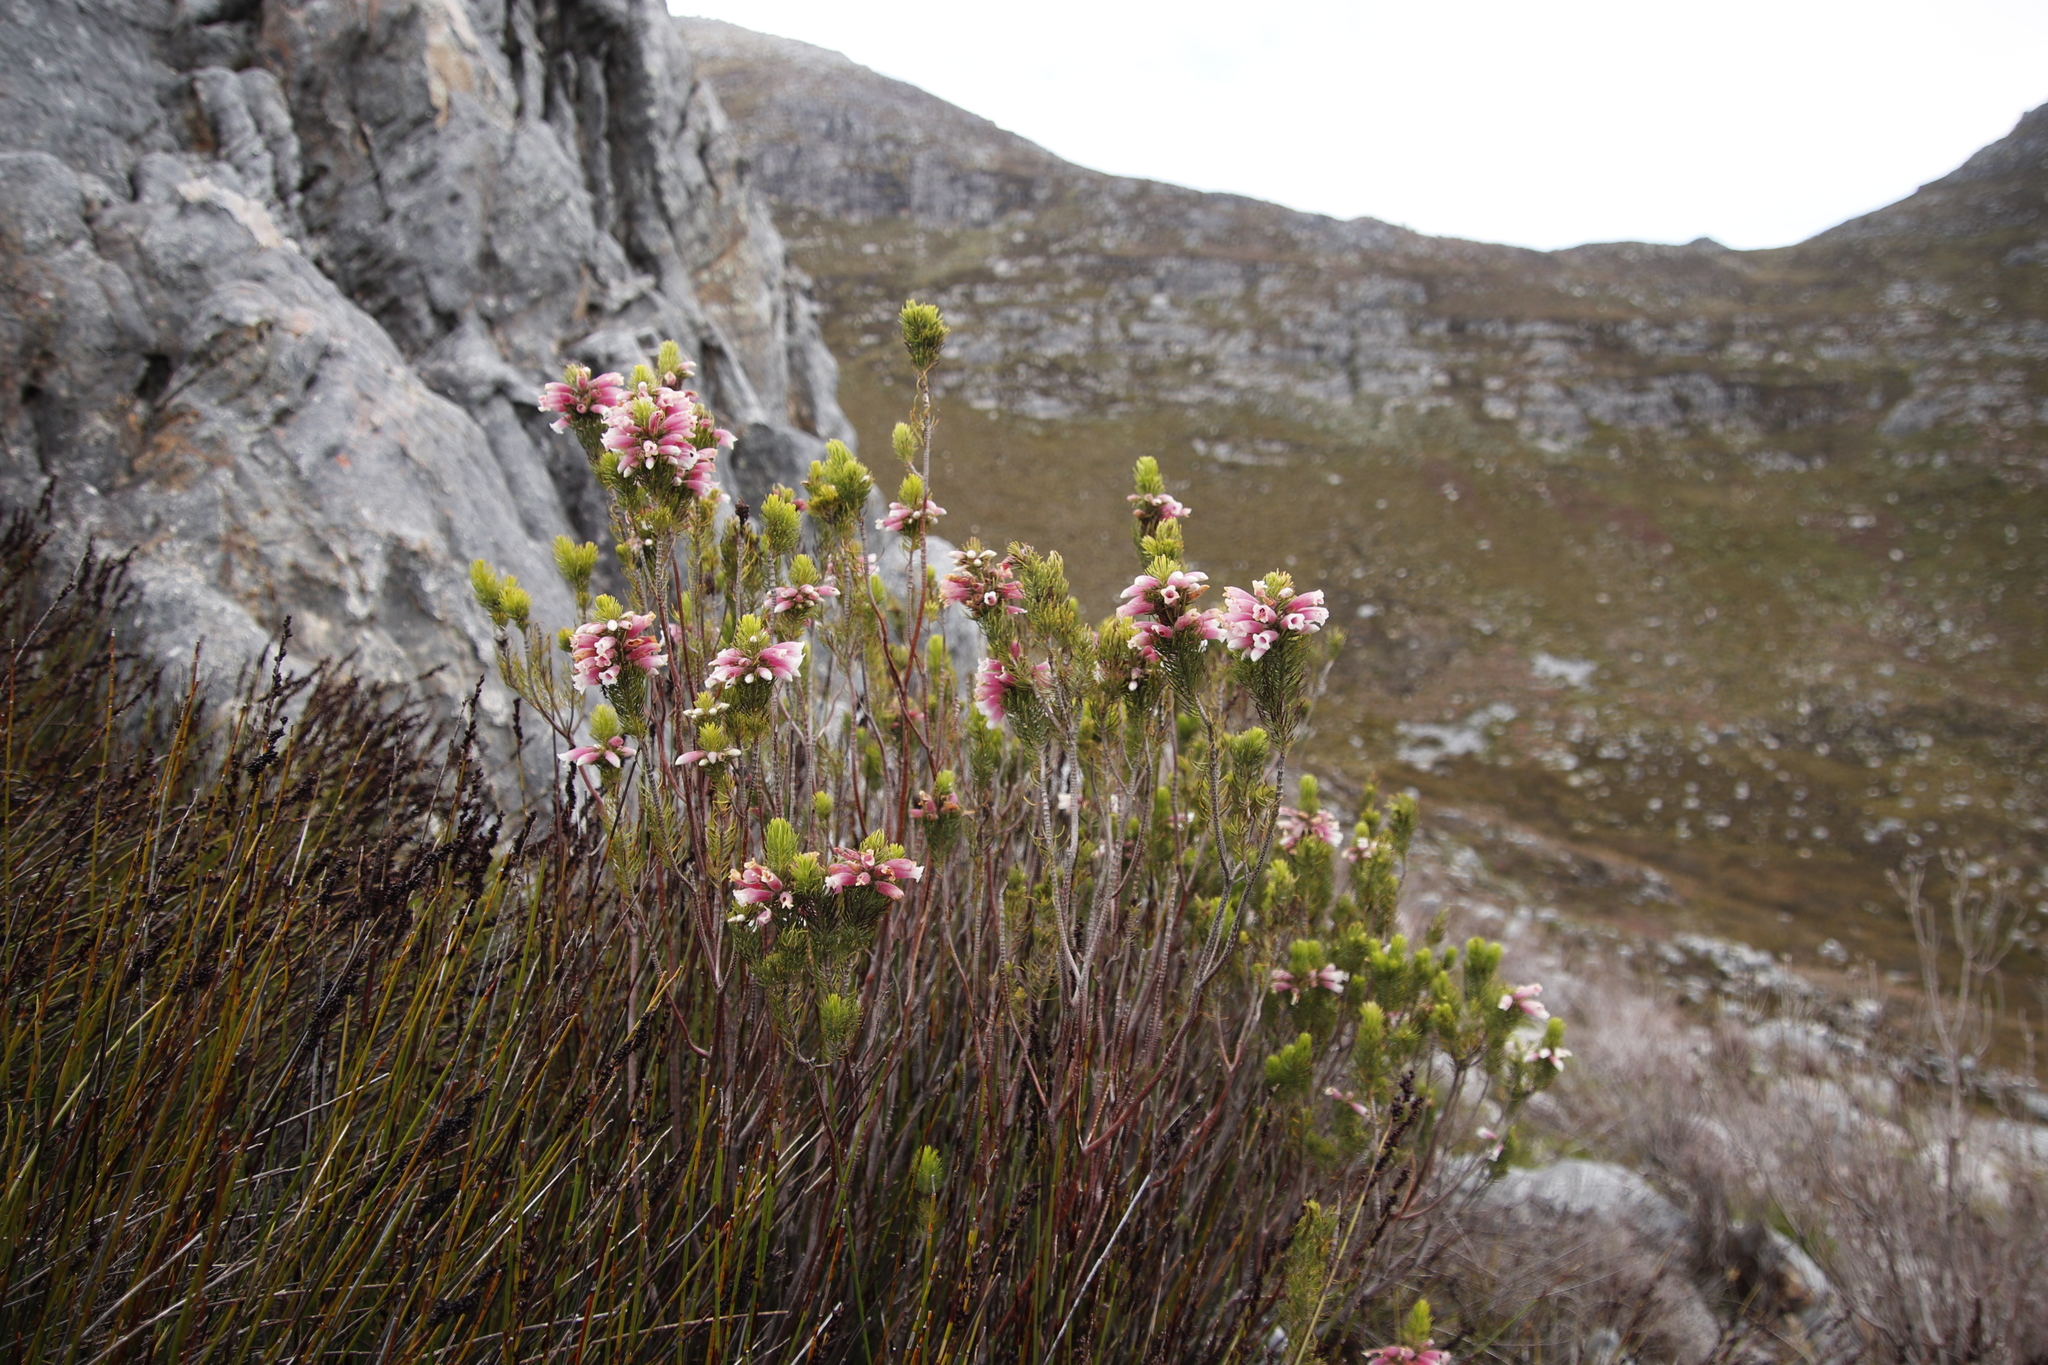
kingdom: Plantae
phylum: Tracheophyta
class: Magnoliopsida
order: Ericales
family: Ericaceae
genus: Erica
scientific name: Erica viscaria
